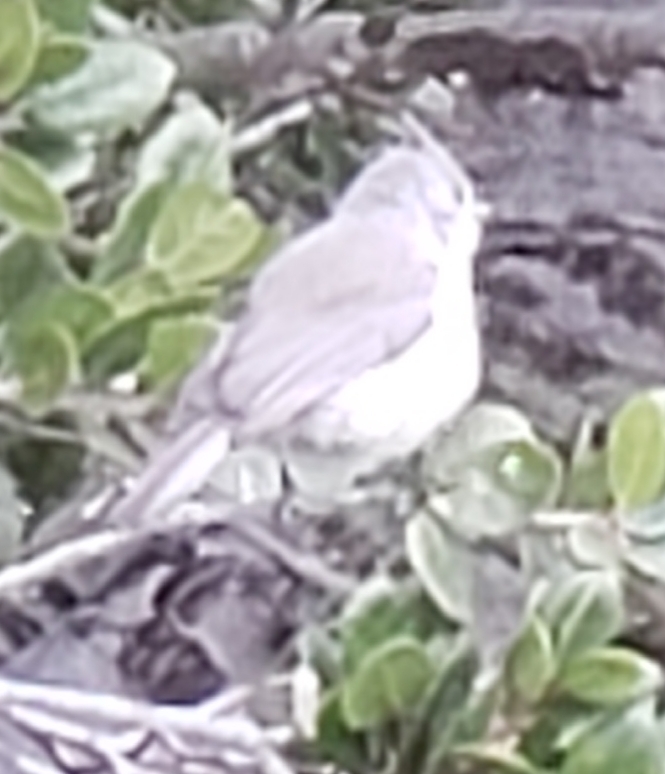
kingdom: Animalia
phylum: Chordata
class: Aves
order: Passeriformes
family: Paridae
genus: Baeolophus
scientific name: Baeolophus inornatus
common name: Oak titmouse
